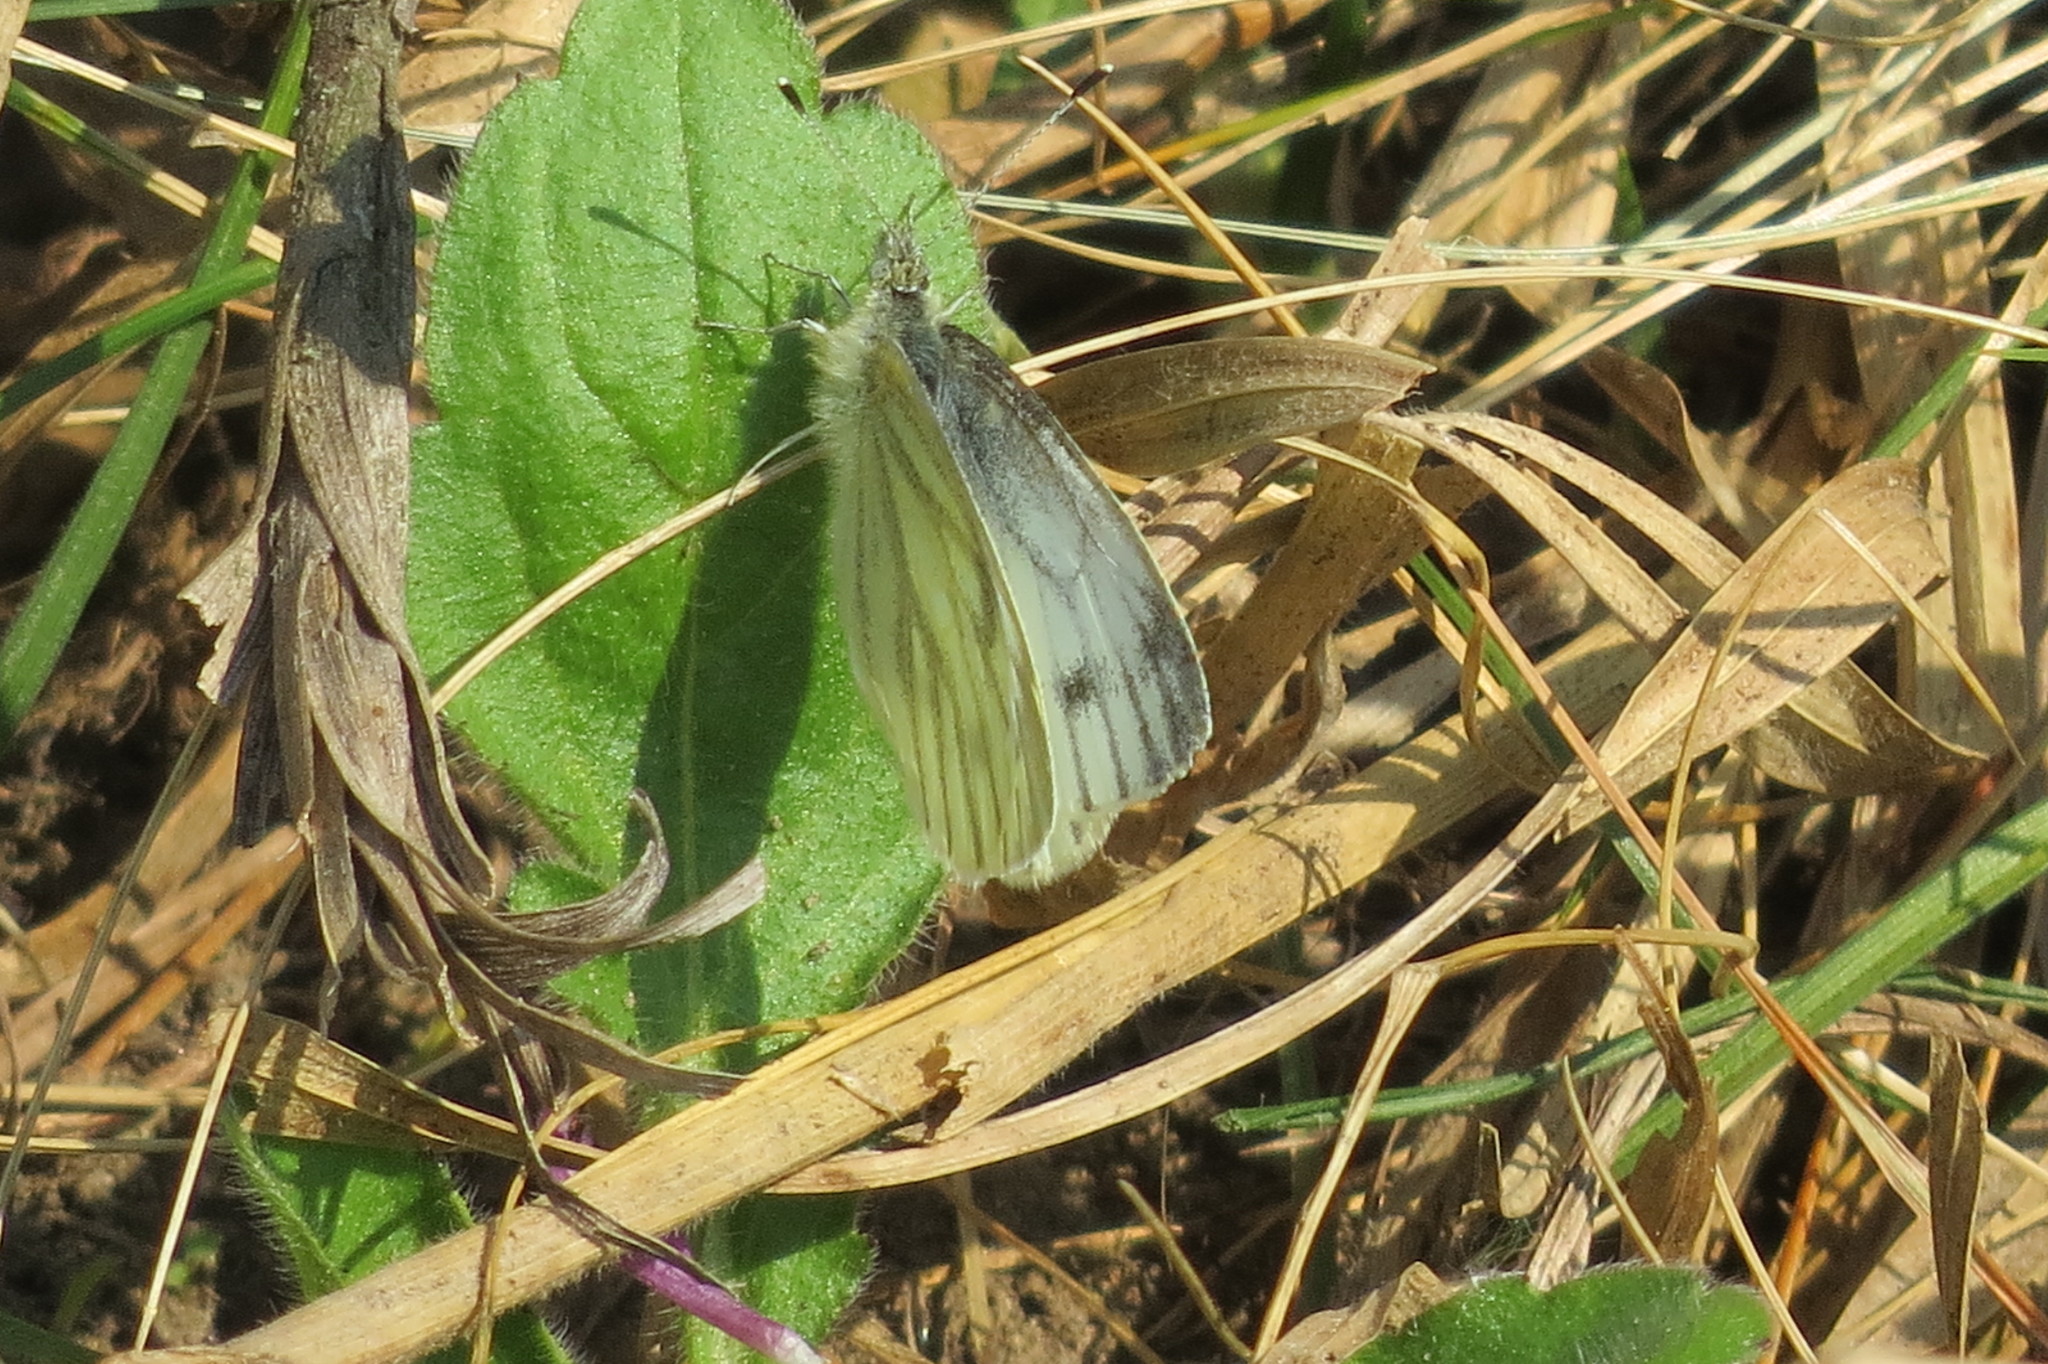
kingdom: Animalia
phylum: Arthropoda
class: Insecta
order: Lepidoptera
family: Pieridae
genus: Pieris
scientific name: Pieris napi
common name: Green-veined white
